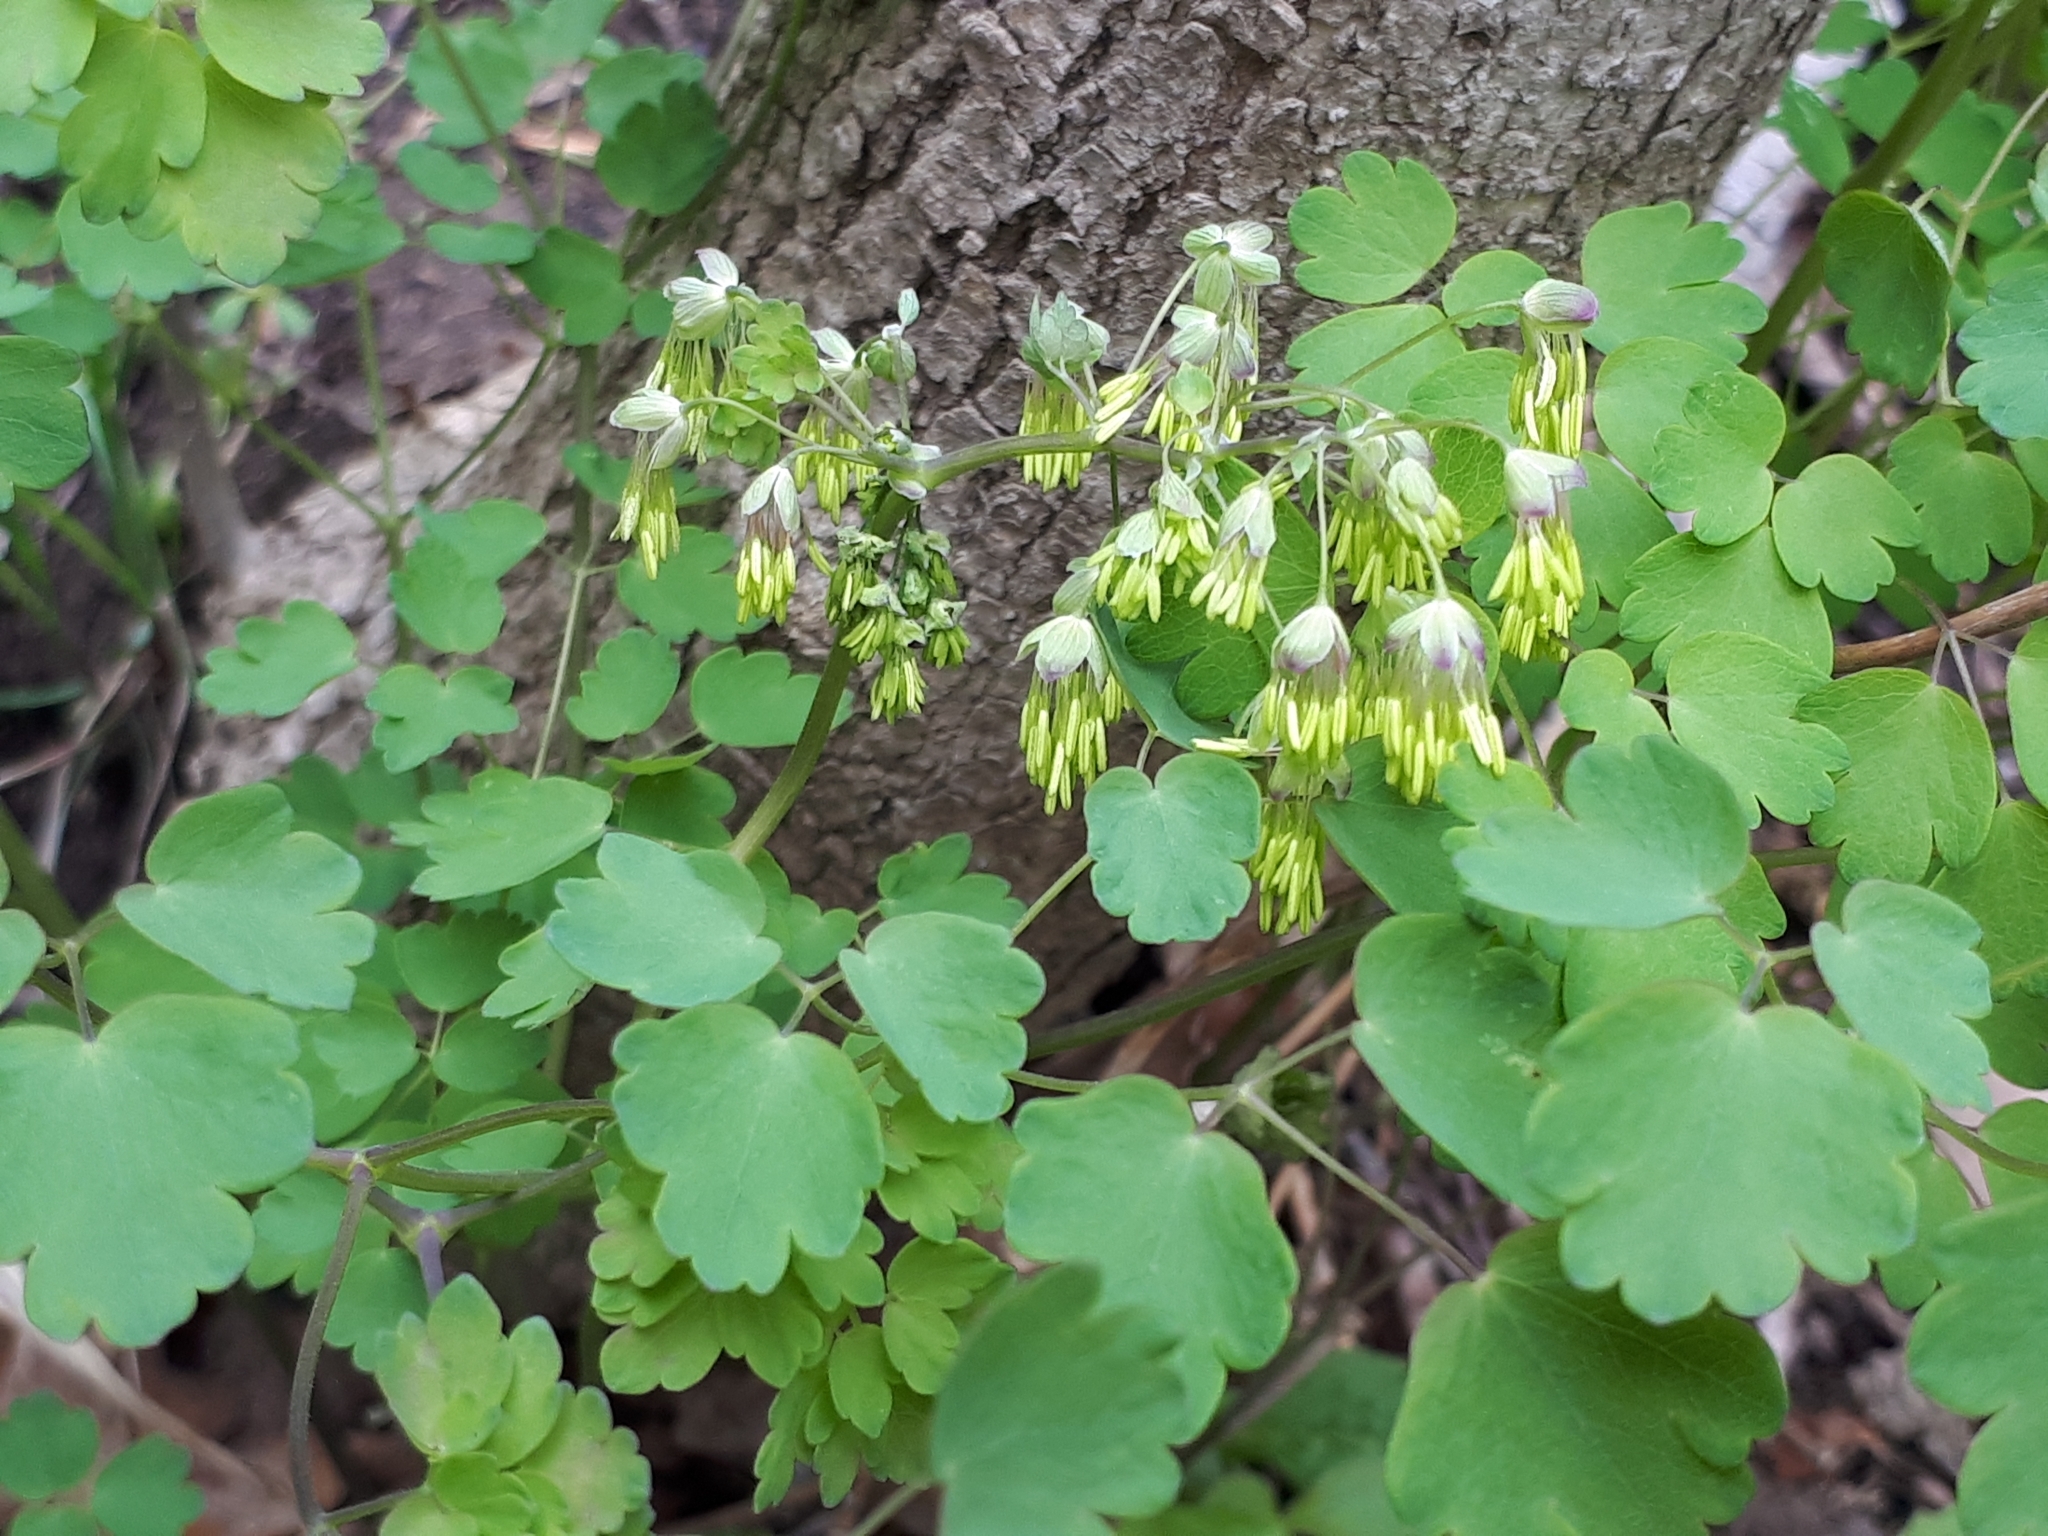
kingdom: Plantae
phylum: Tracheophyta
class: Magnoliopsida
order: Ranunculales
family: Ranunculaceae
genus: Thalictrum
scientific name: Thalictrum dioicum
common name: Early meadow-rue
